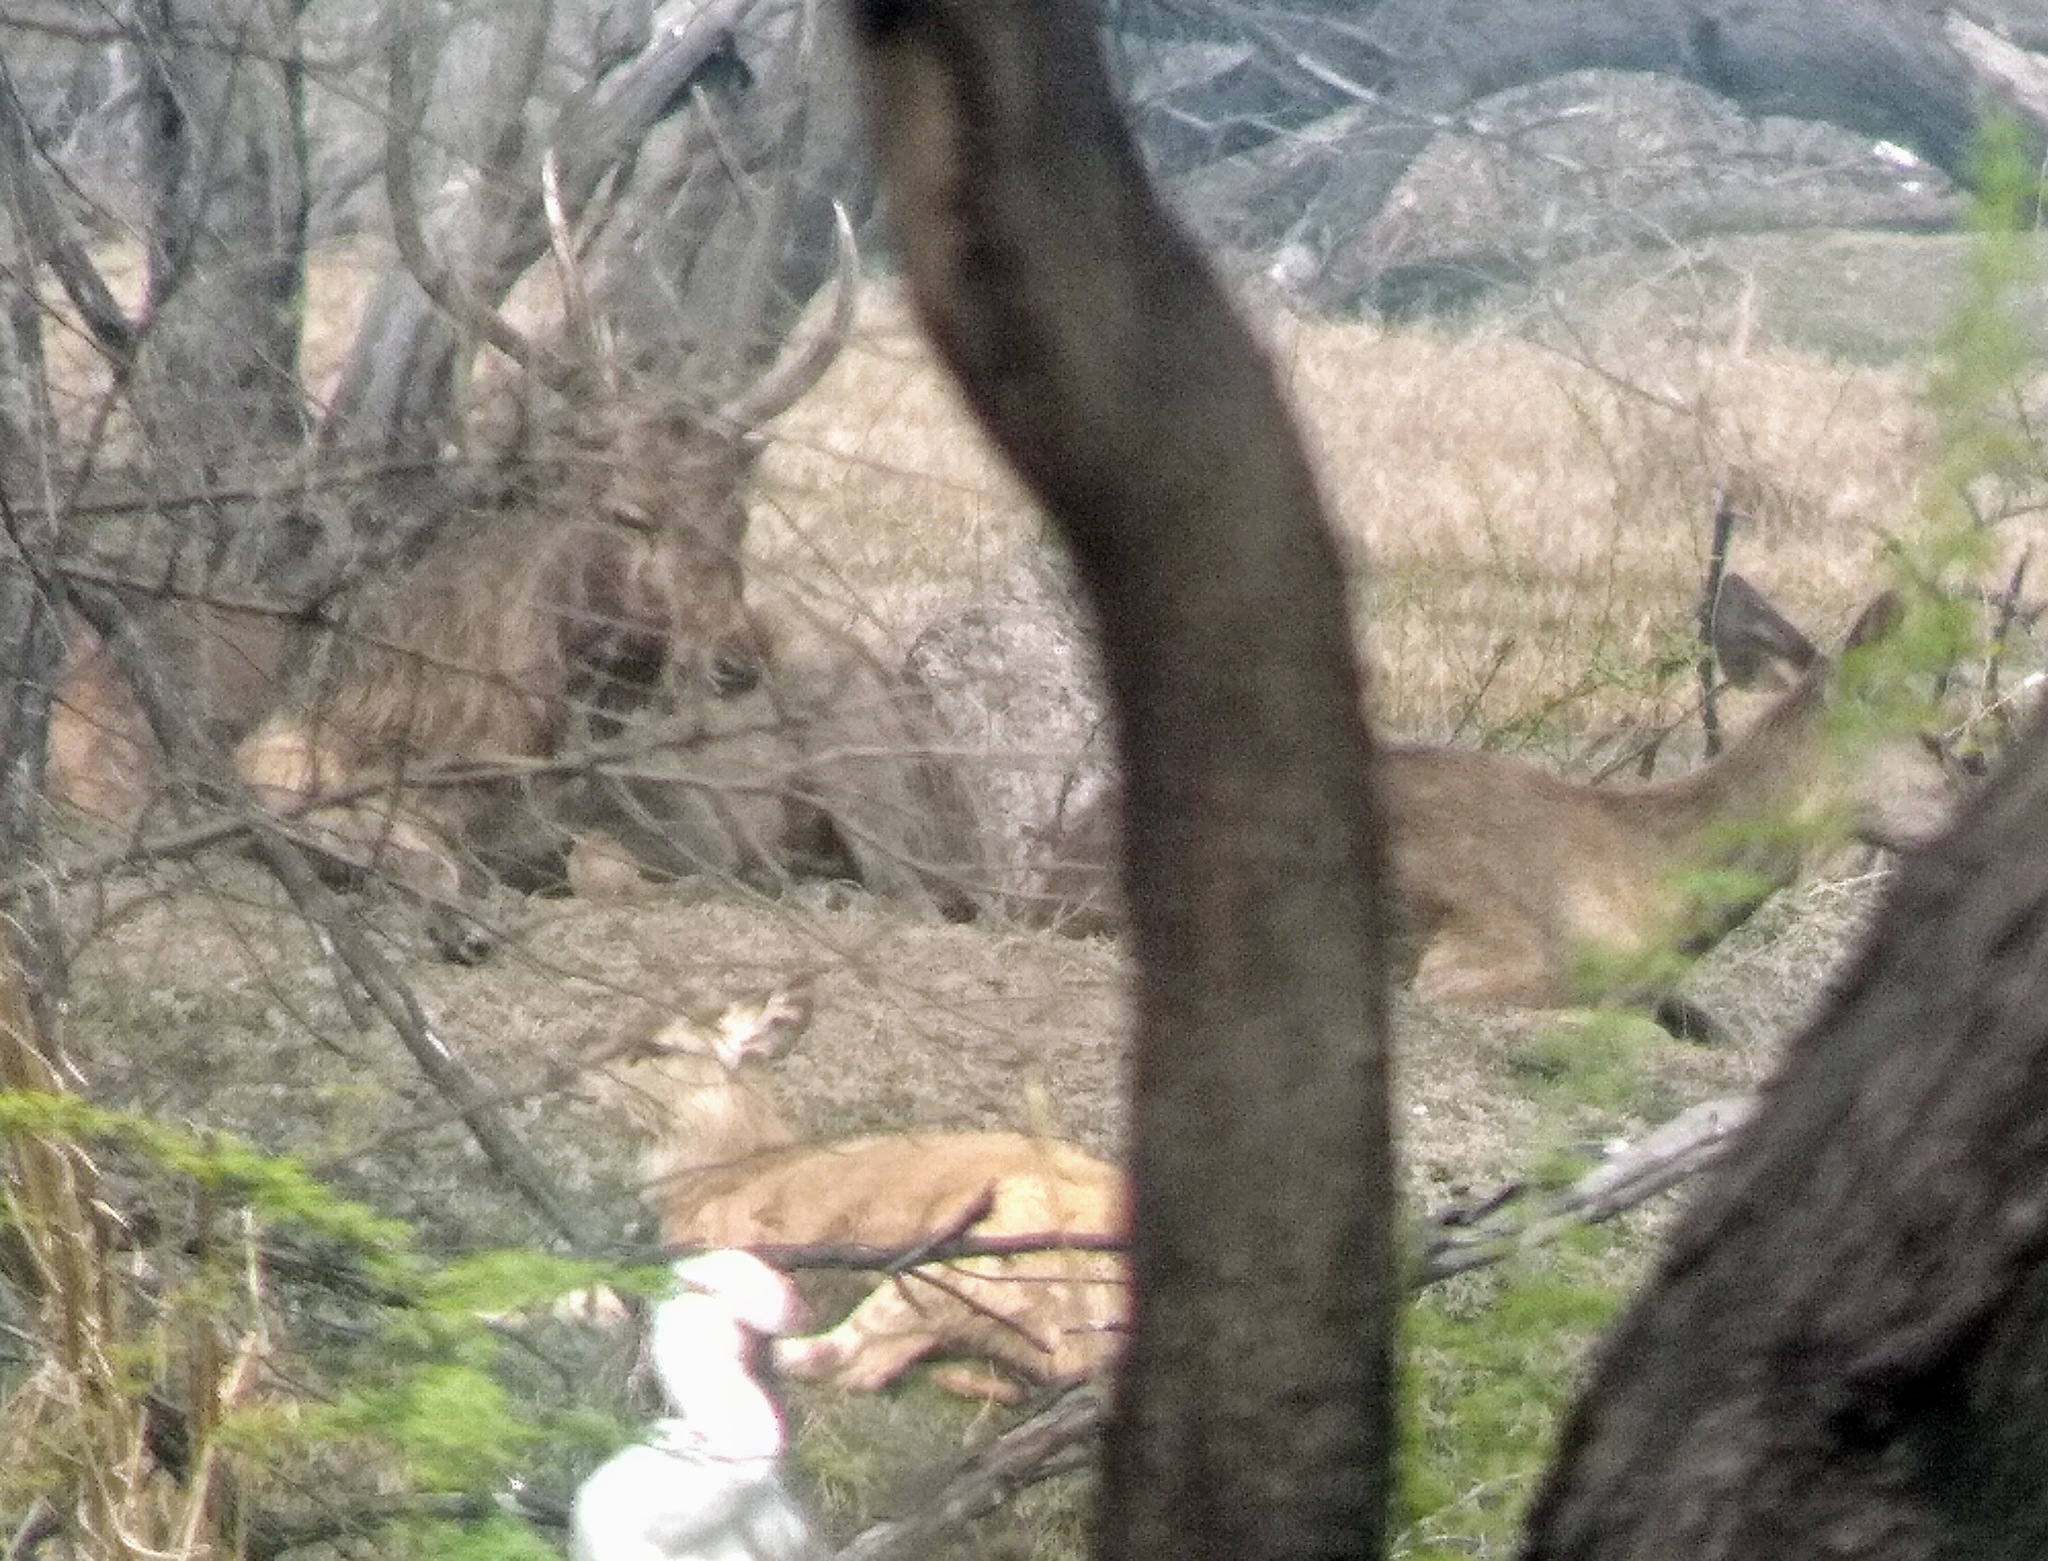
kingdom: Animalia
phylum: Chordata
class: Mammalia
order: Artiodactyla
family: Cervidae
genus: Rusa
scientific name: Rusa unicolor
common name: Sambar
